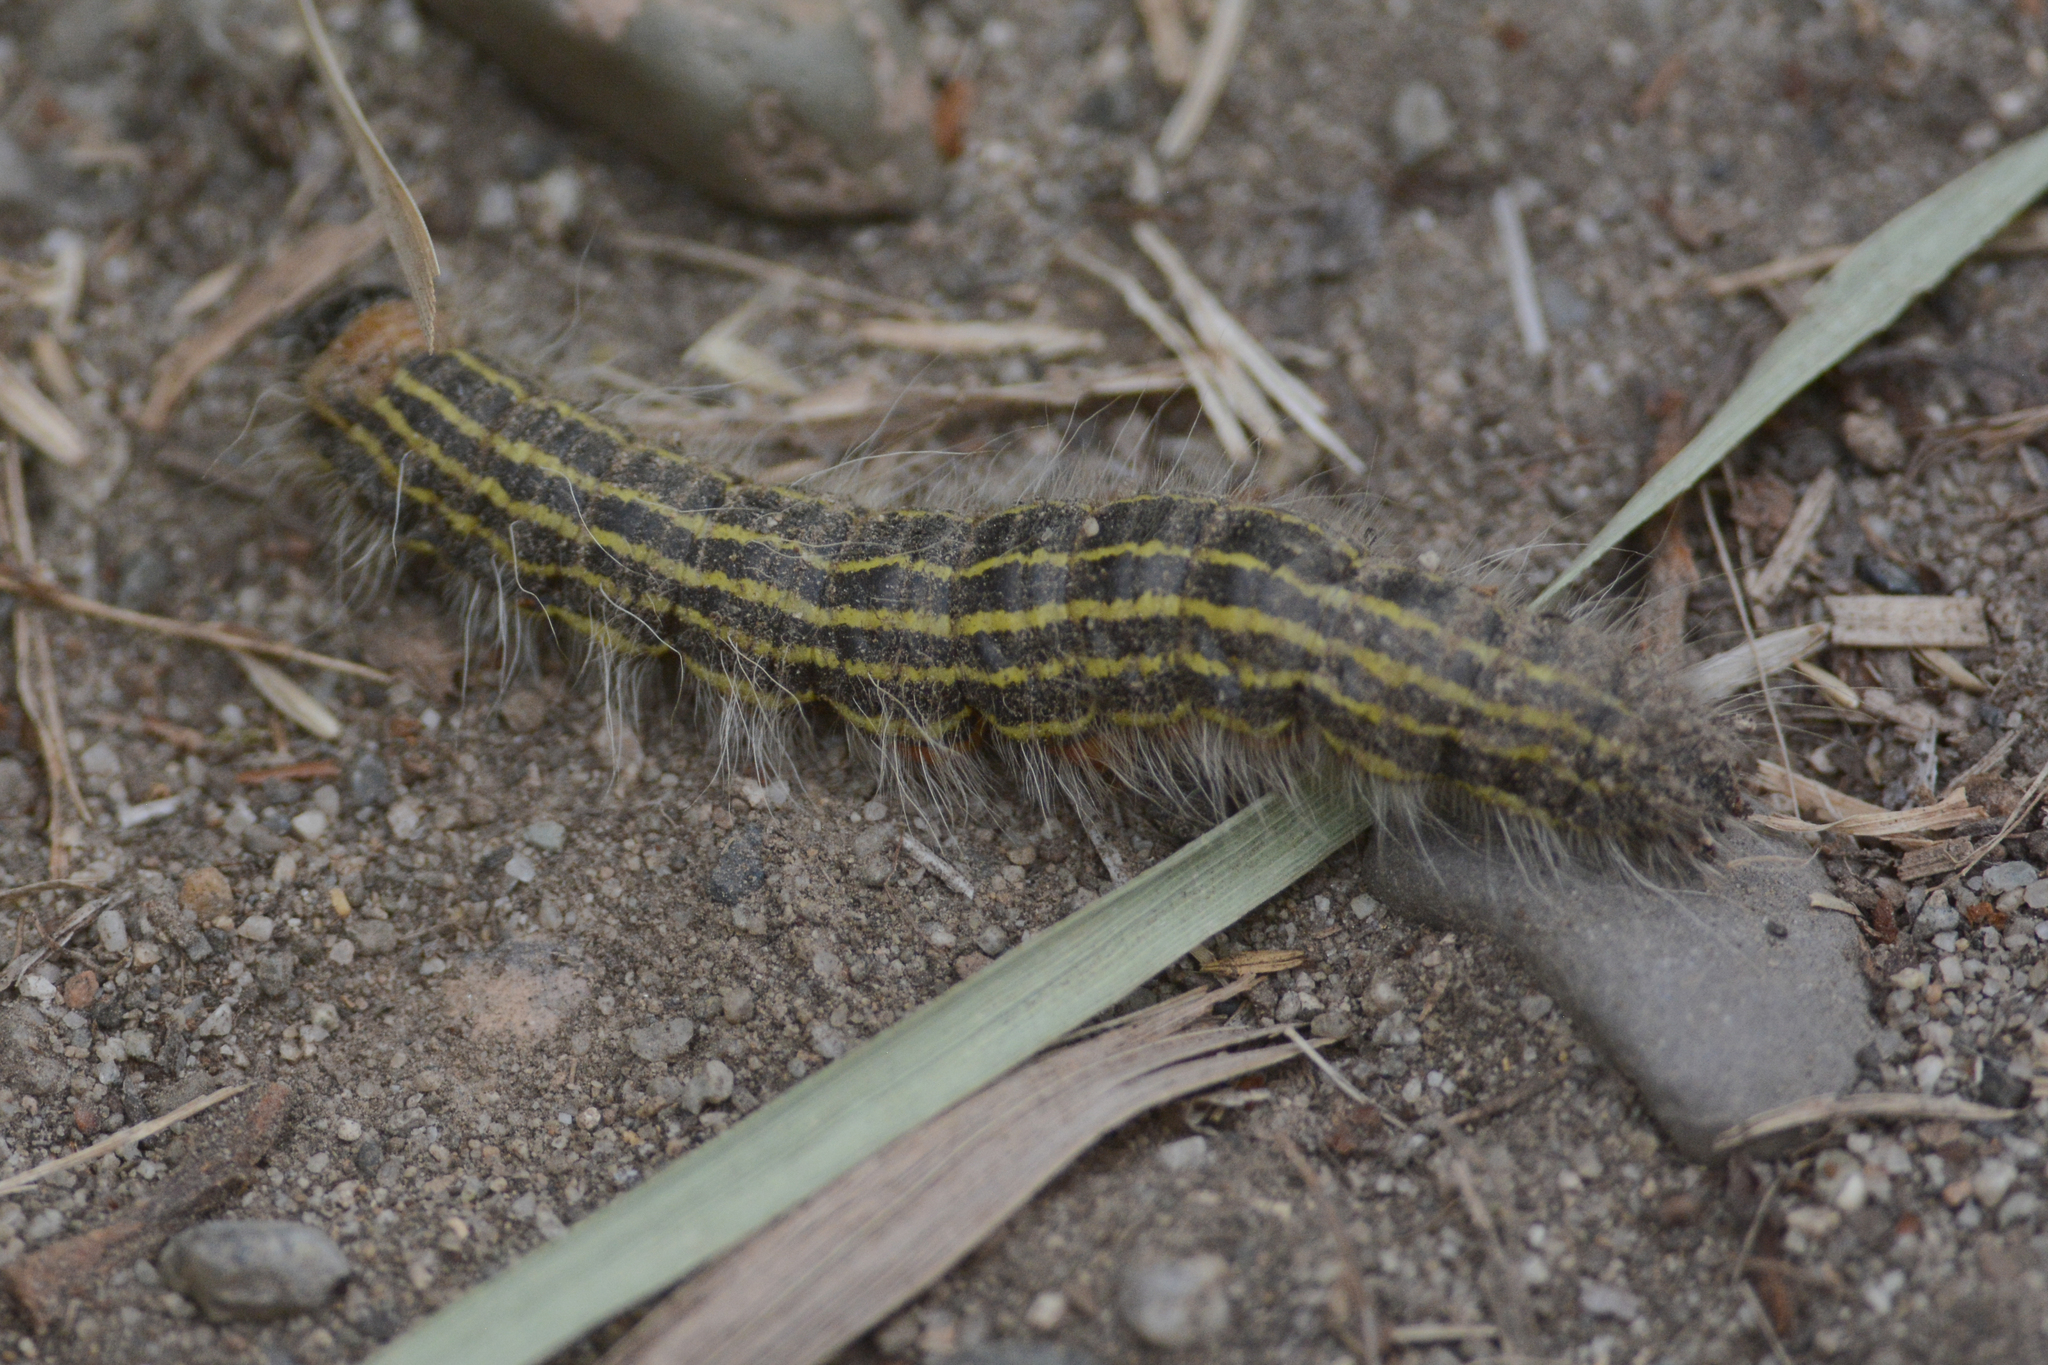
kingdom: Animalia
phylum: Arthropoda
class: Insecta
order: Lepidoptera
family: Notodontidae
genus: Datana
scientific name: Datana
